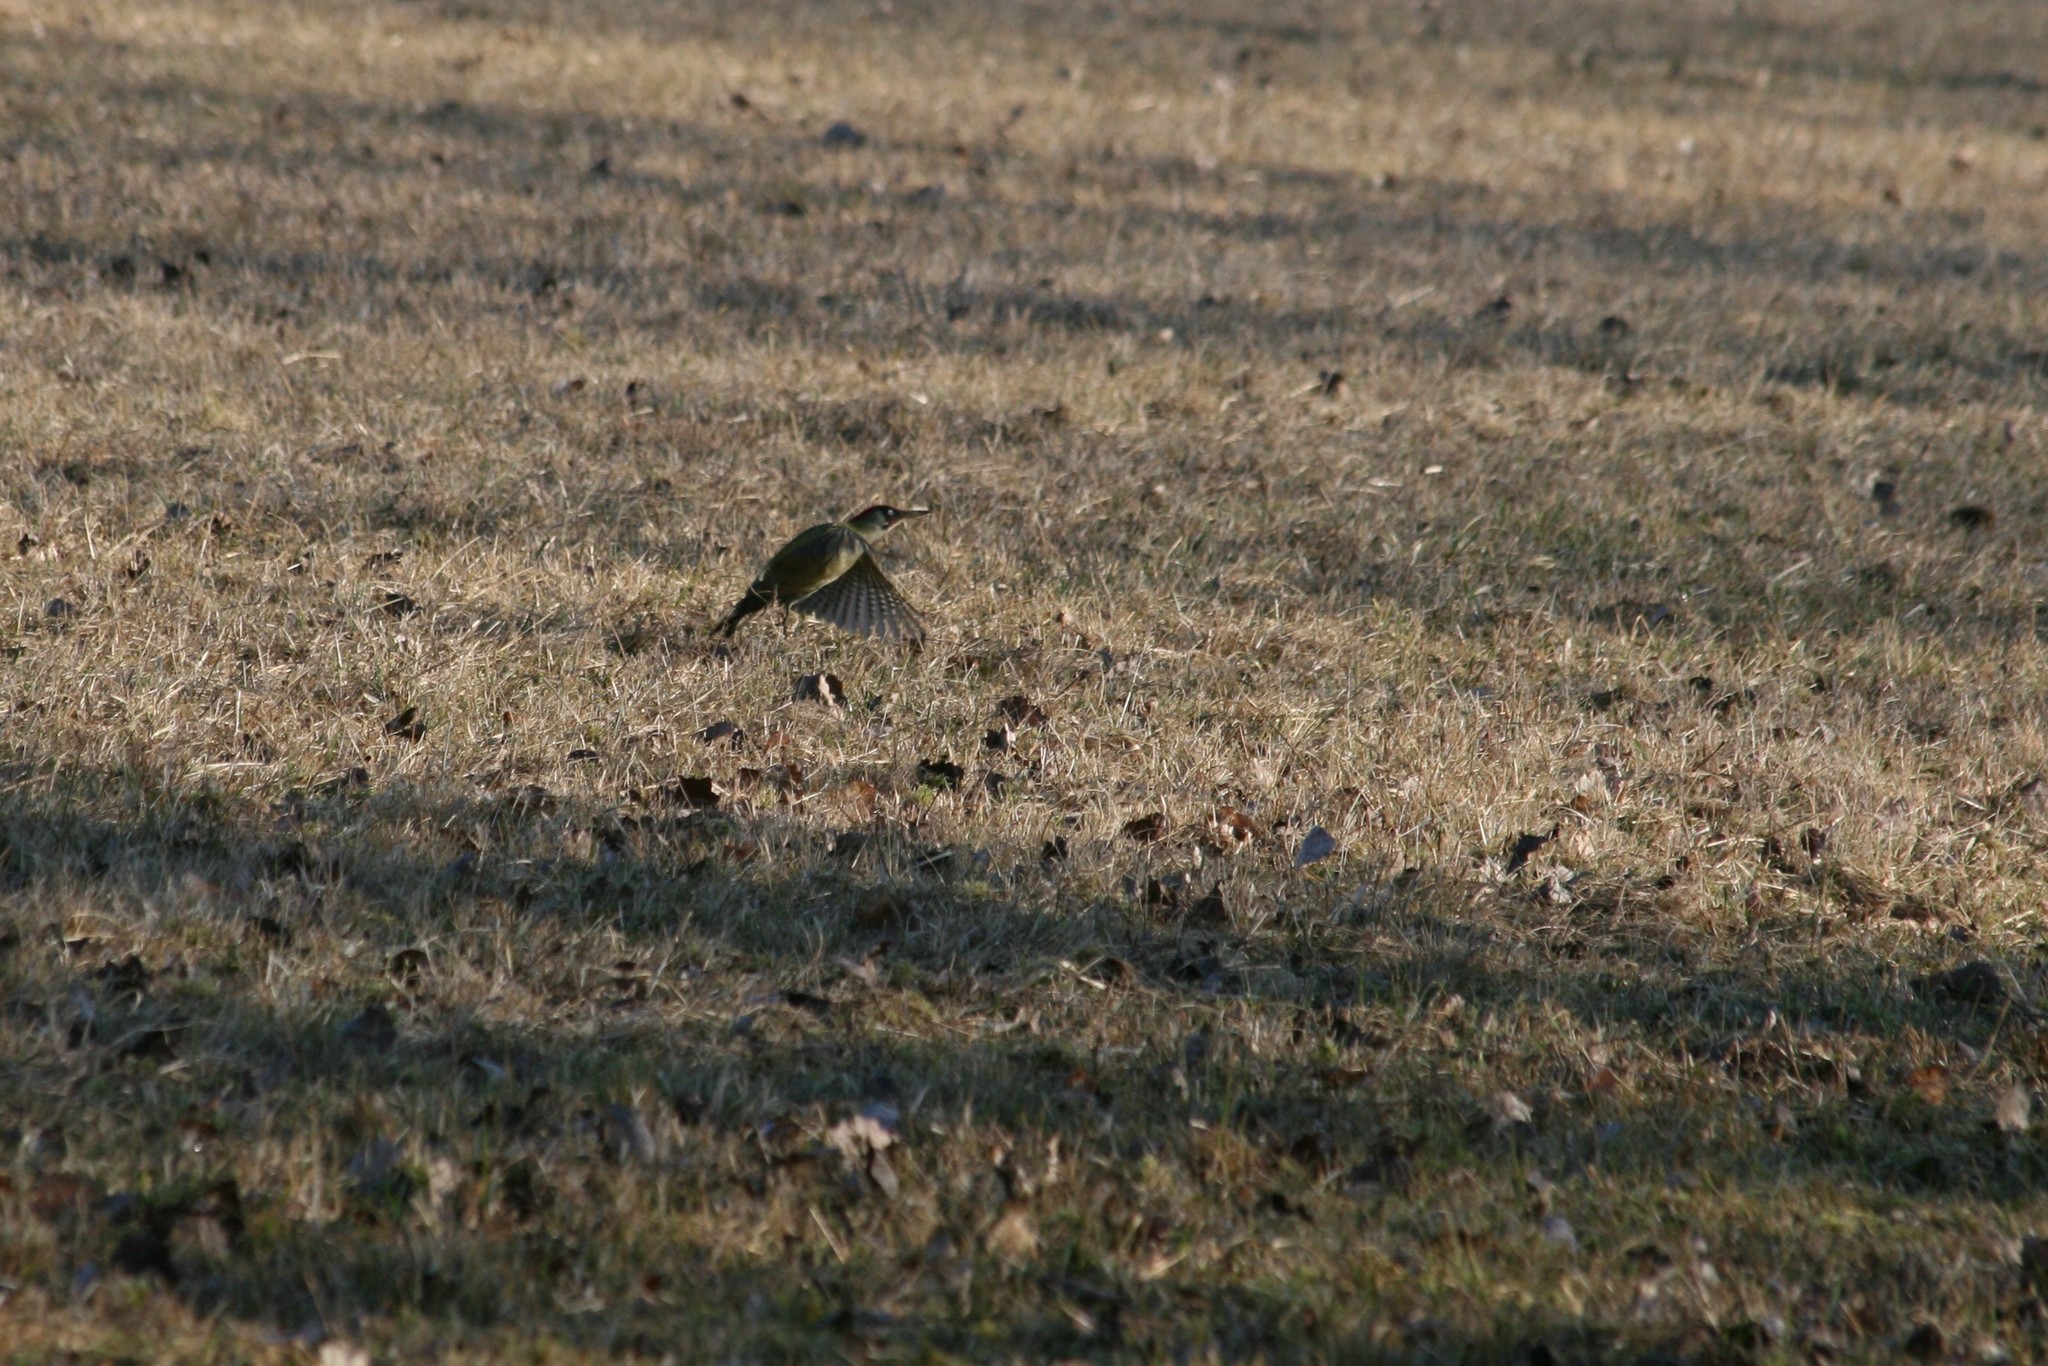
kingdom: Animalia
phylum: Chordata
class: Aves
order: Piciformes
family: Picidae
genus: Picus
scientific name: Picus viridis
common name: European green woodpecker
